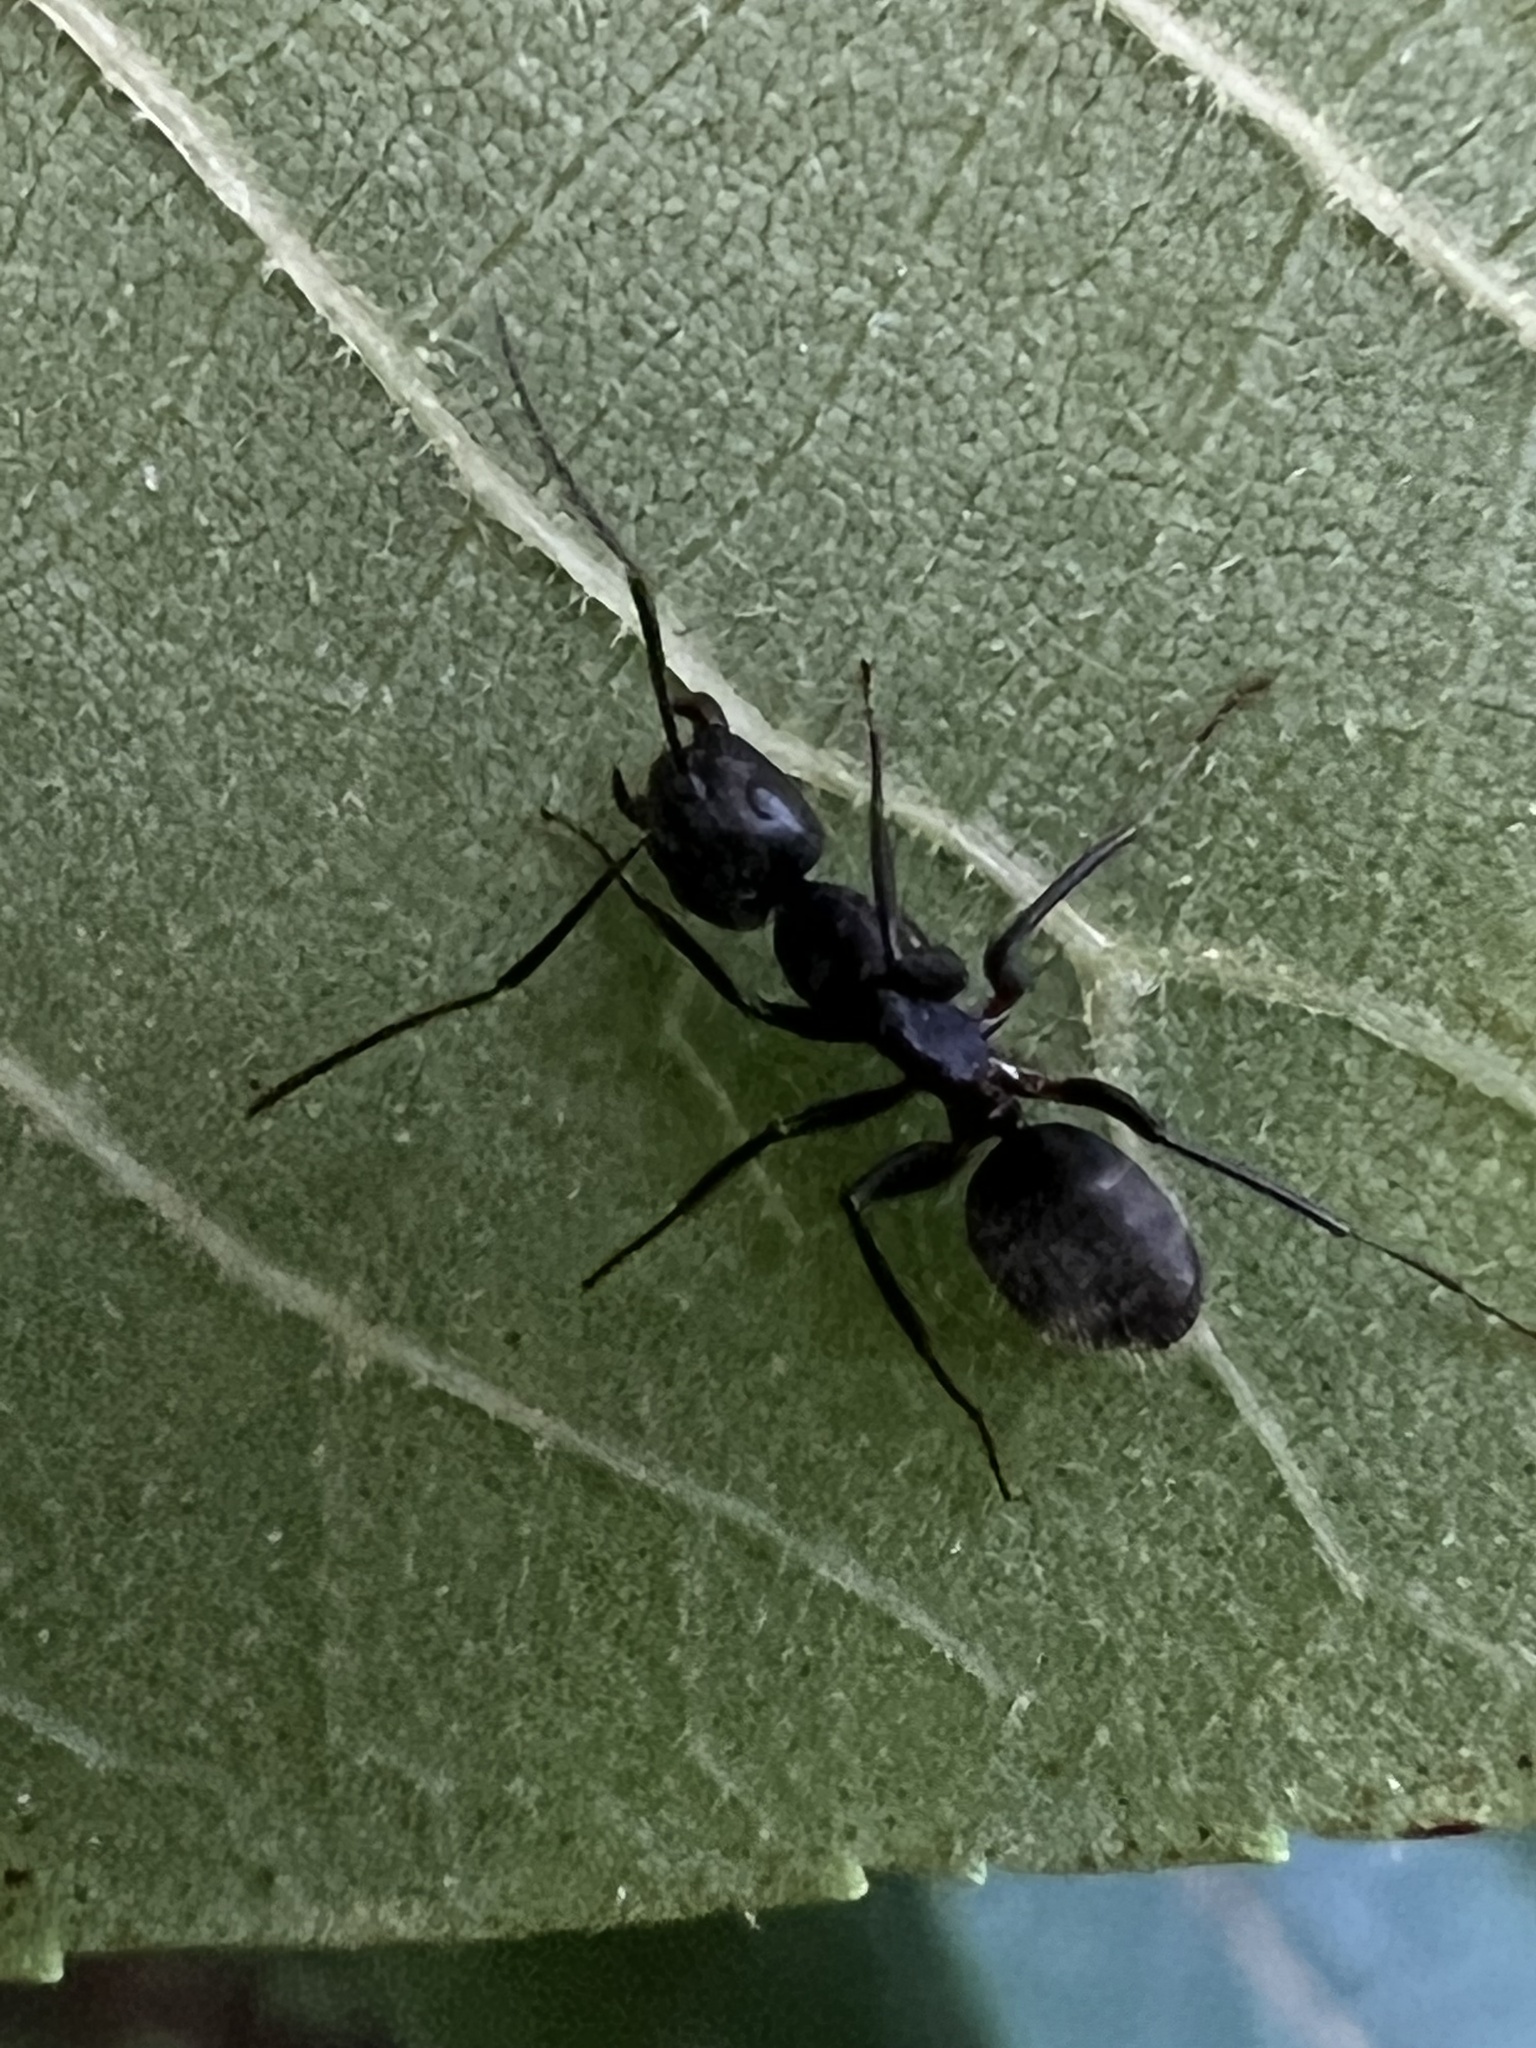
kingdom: Animalia
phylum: Arthropoda
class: Insecta
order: Hymenoptera
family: Formicidae
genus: Camponotus
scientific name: Camponotus pennsylvanicus
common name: Black carpenter ant
